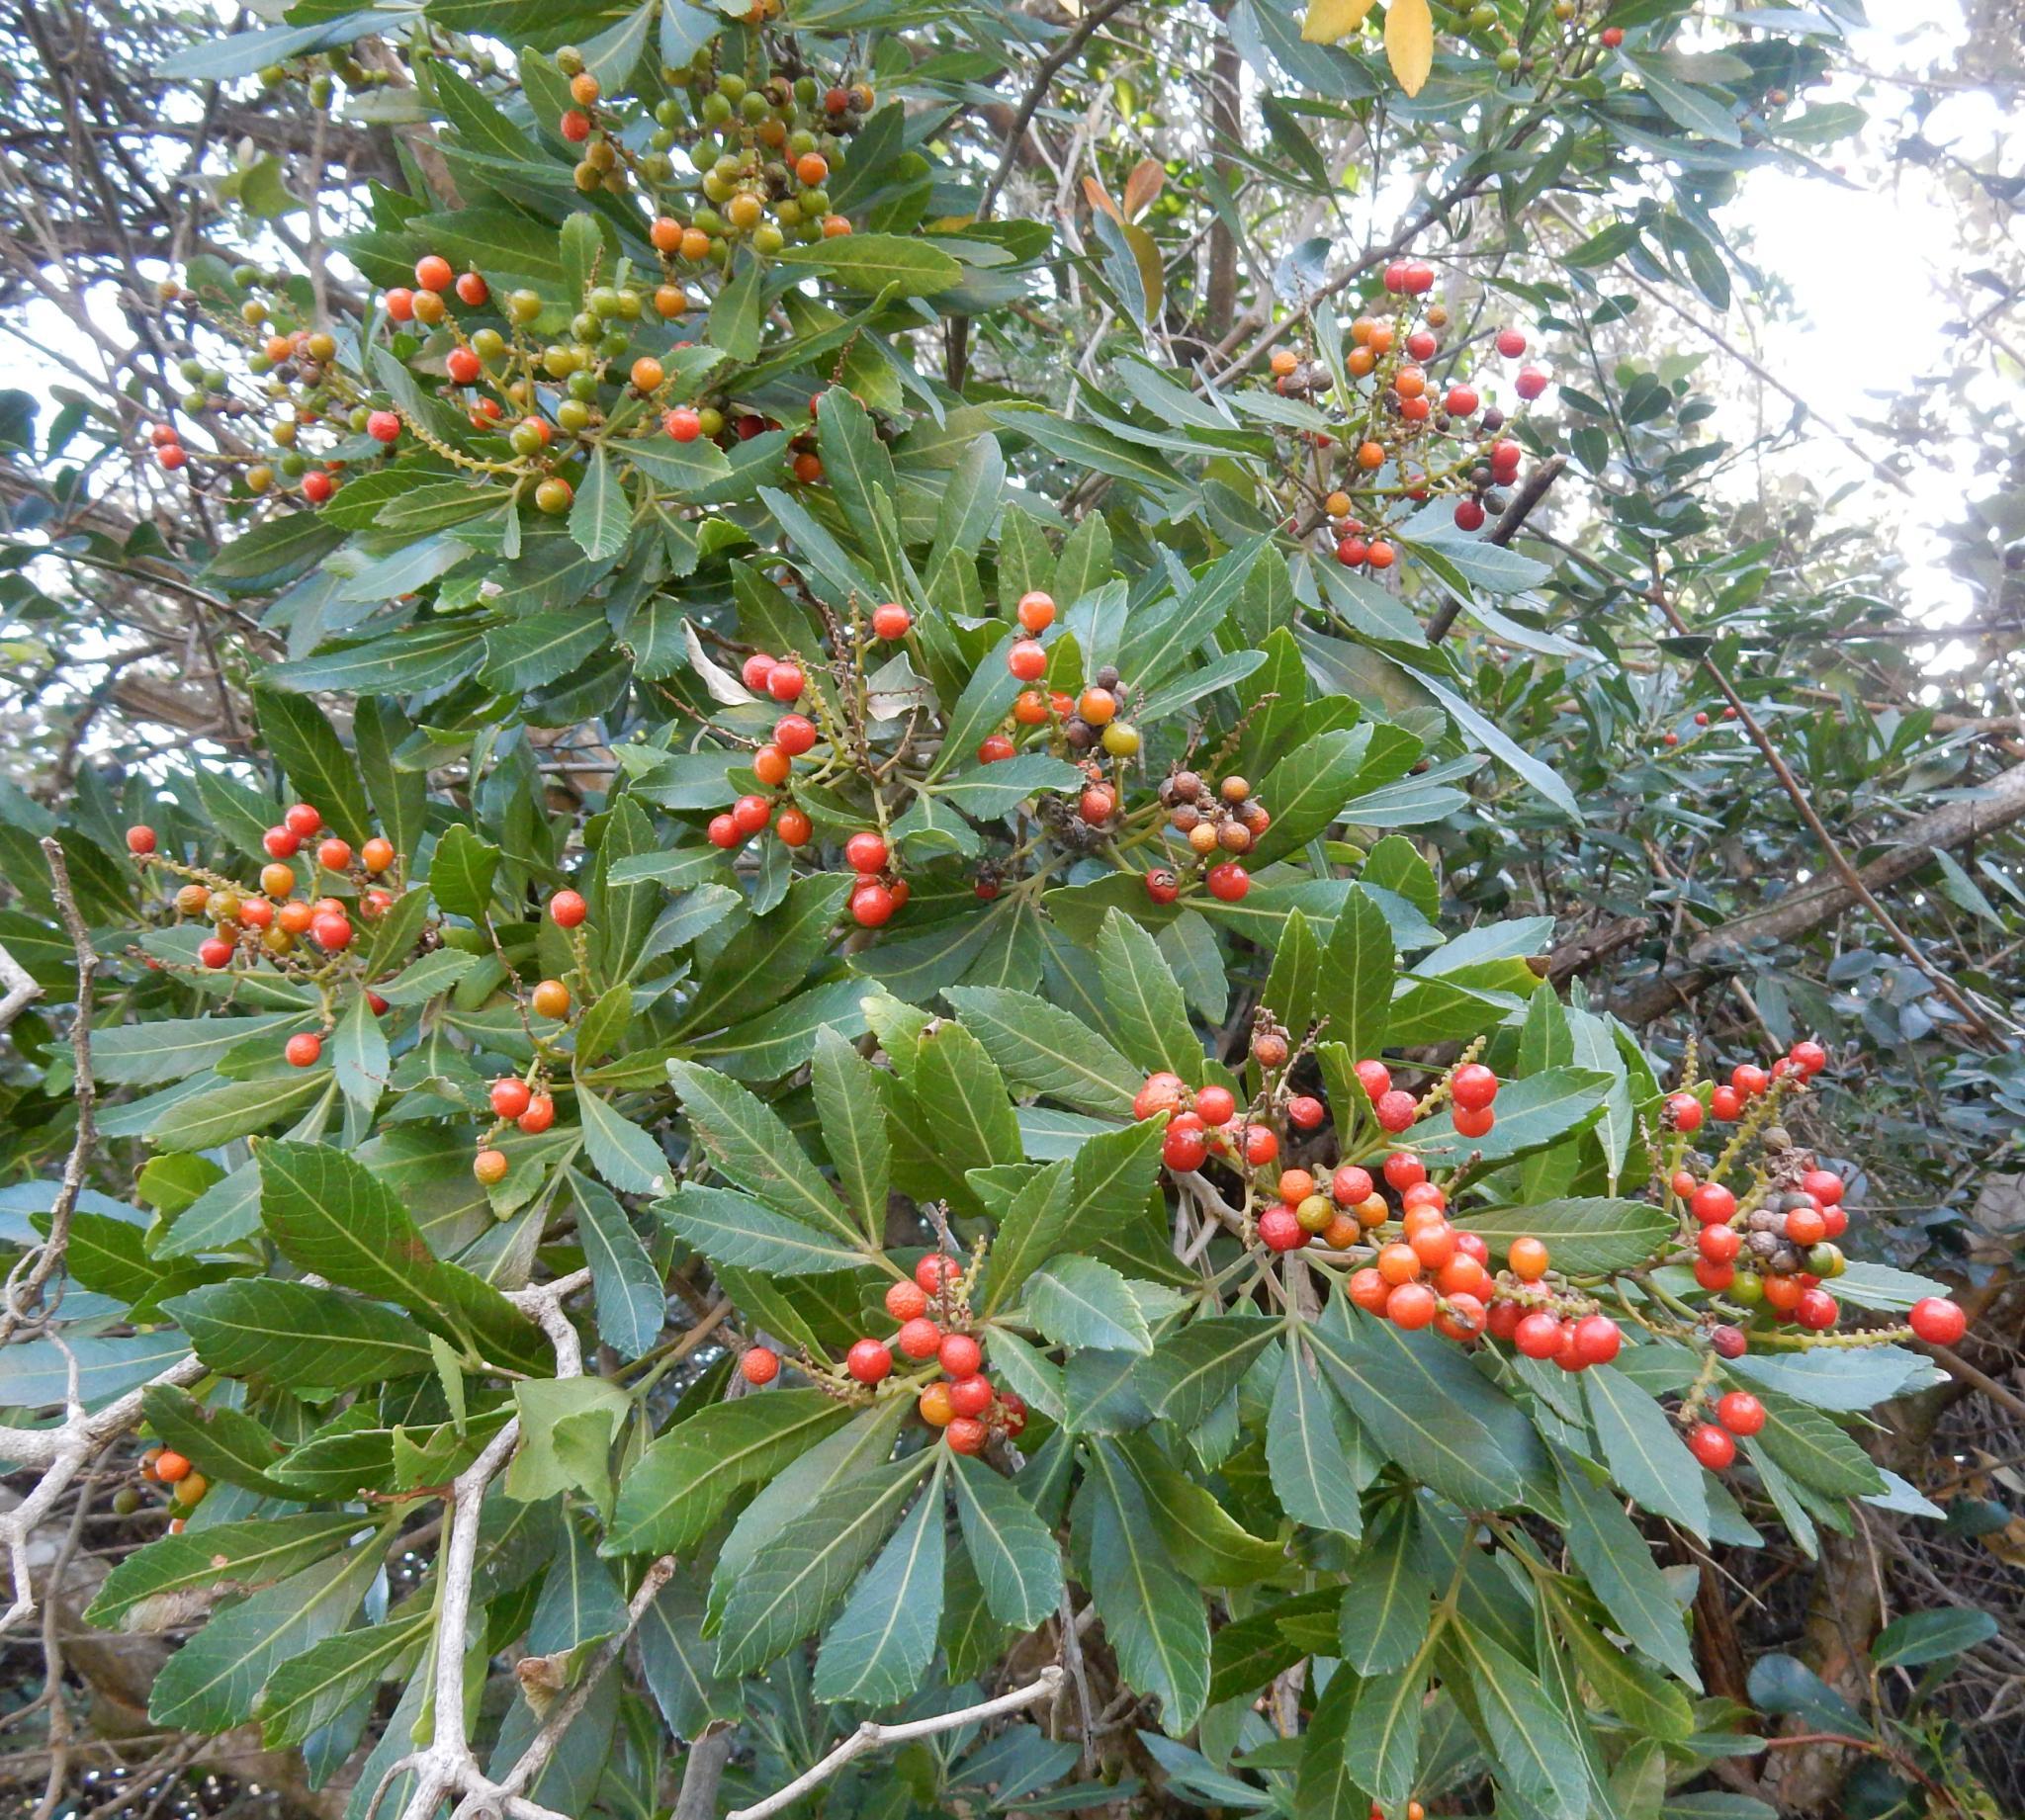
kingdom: Plantae
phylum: Tracheophyta
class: Magnoliopsida
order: Sapindales
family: Sapindaceae
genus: Allophylus
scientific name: Allophylus natalensis
